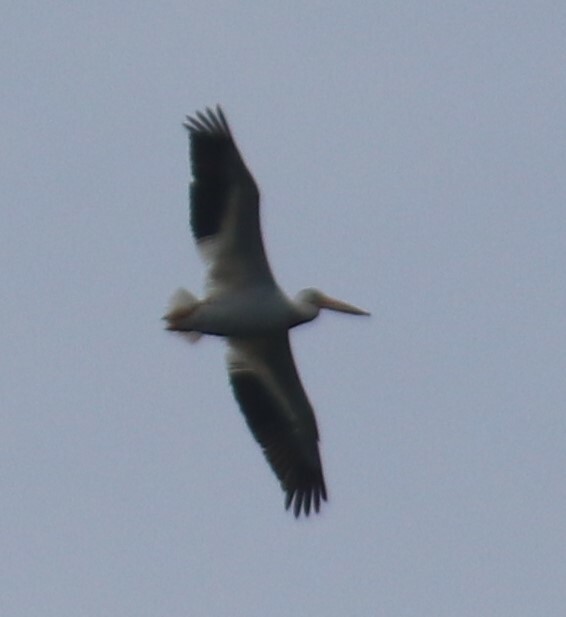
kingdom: Animalia
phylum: Chordata
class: Aves
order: Pelecaniformes
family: Pelecanidae
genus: Pelecanus
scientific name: Pelecanus erythrorhynchos
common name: American white pelican
